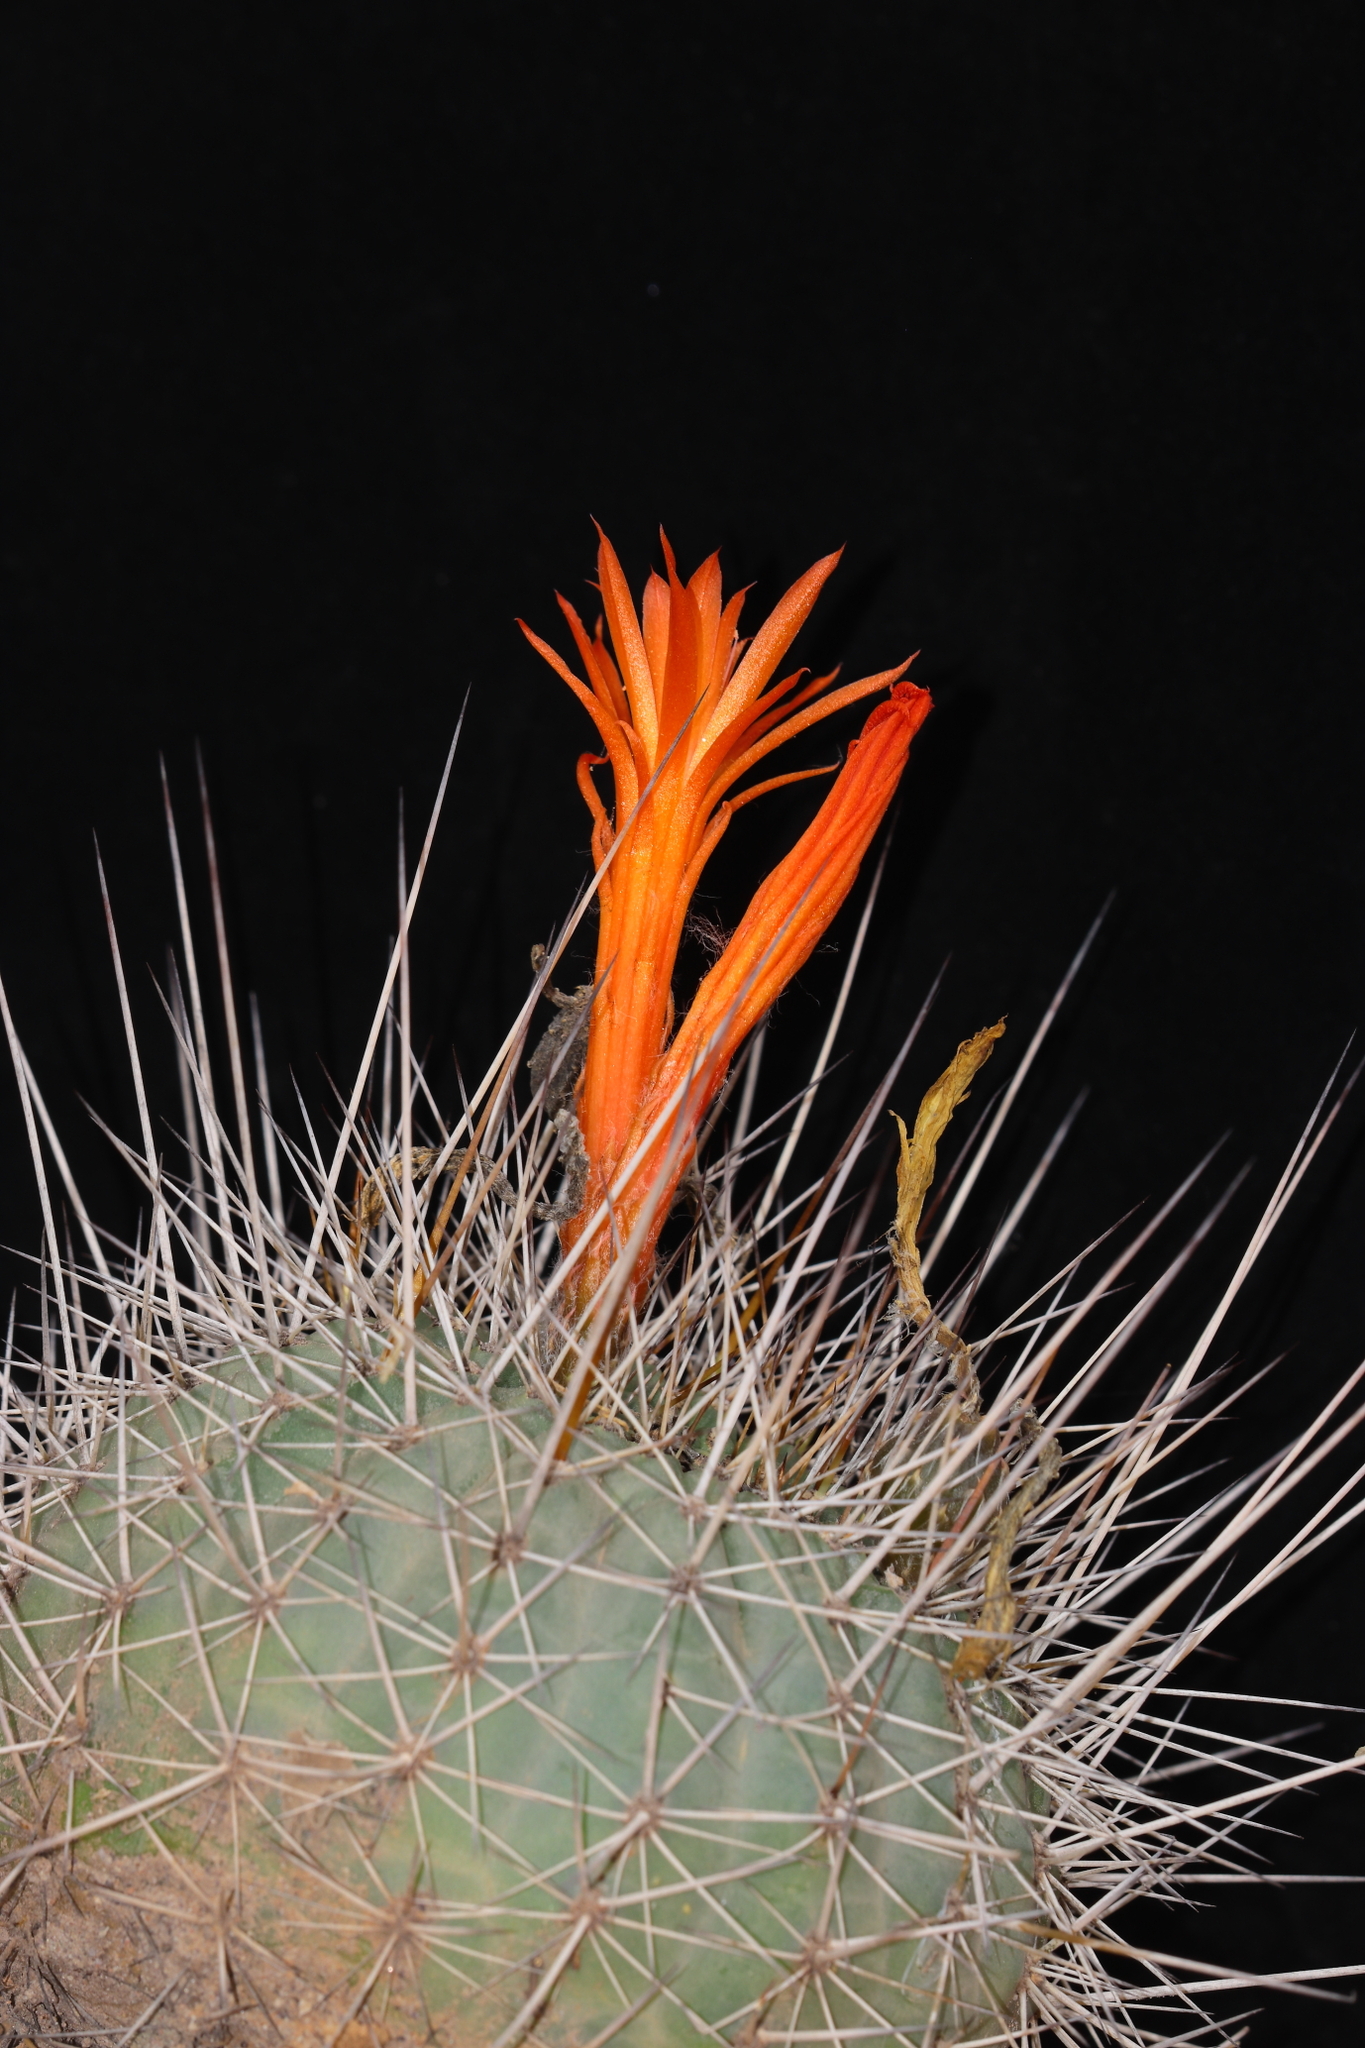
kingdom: Plantae
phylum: Tracheophyta
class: Magnoliopsida
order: Caryophyllales
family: Cactaceae
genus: Matucana
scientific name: Matucana formosa
